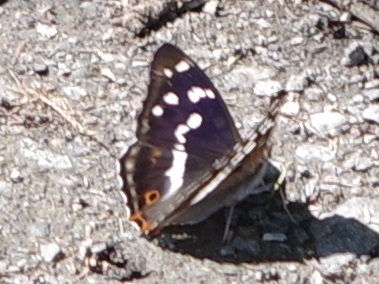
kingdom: Animalia
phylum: Arthropoda
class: Insecta
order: Lepidoptera
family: Nymphalidae
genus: Apatura
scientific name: Apatura iris
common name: Purple emperor
